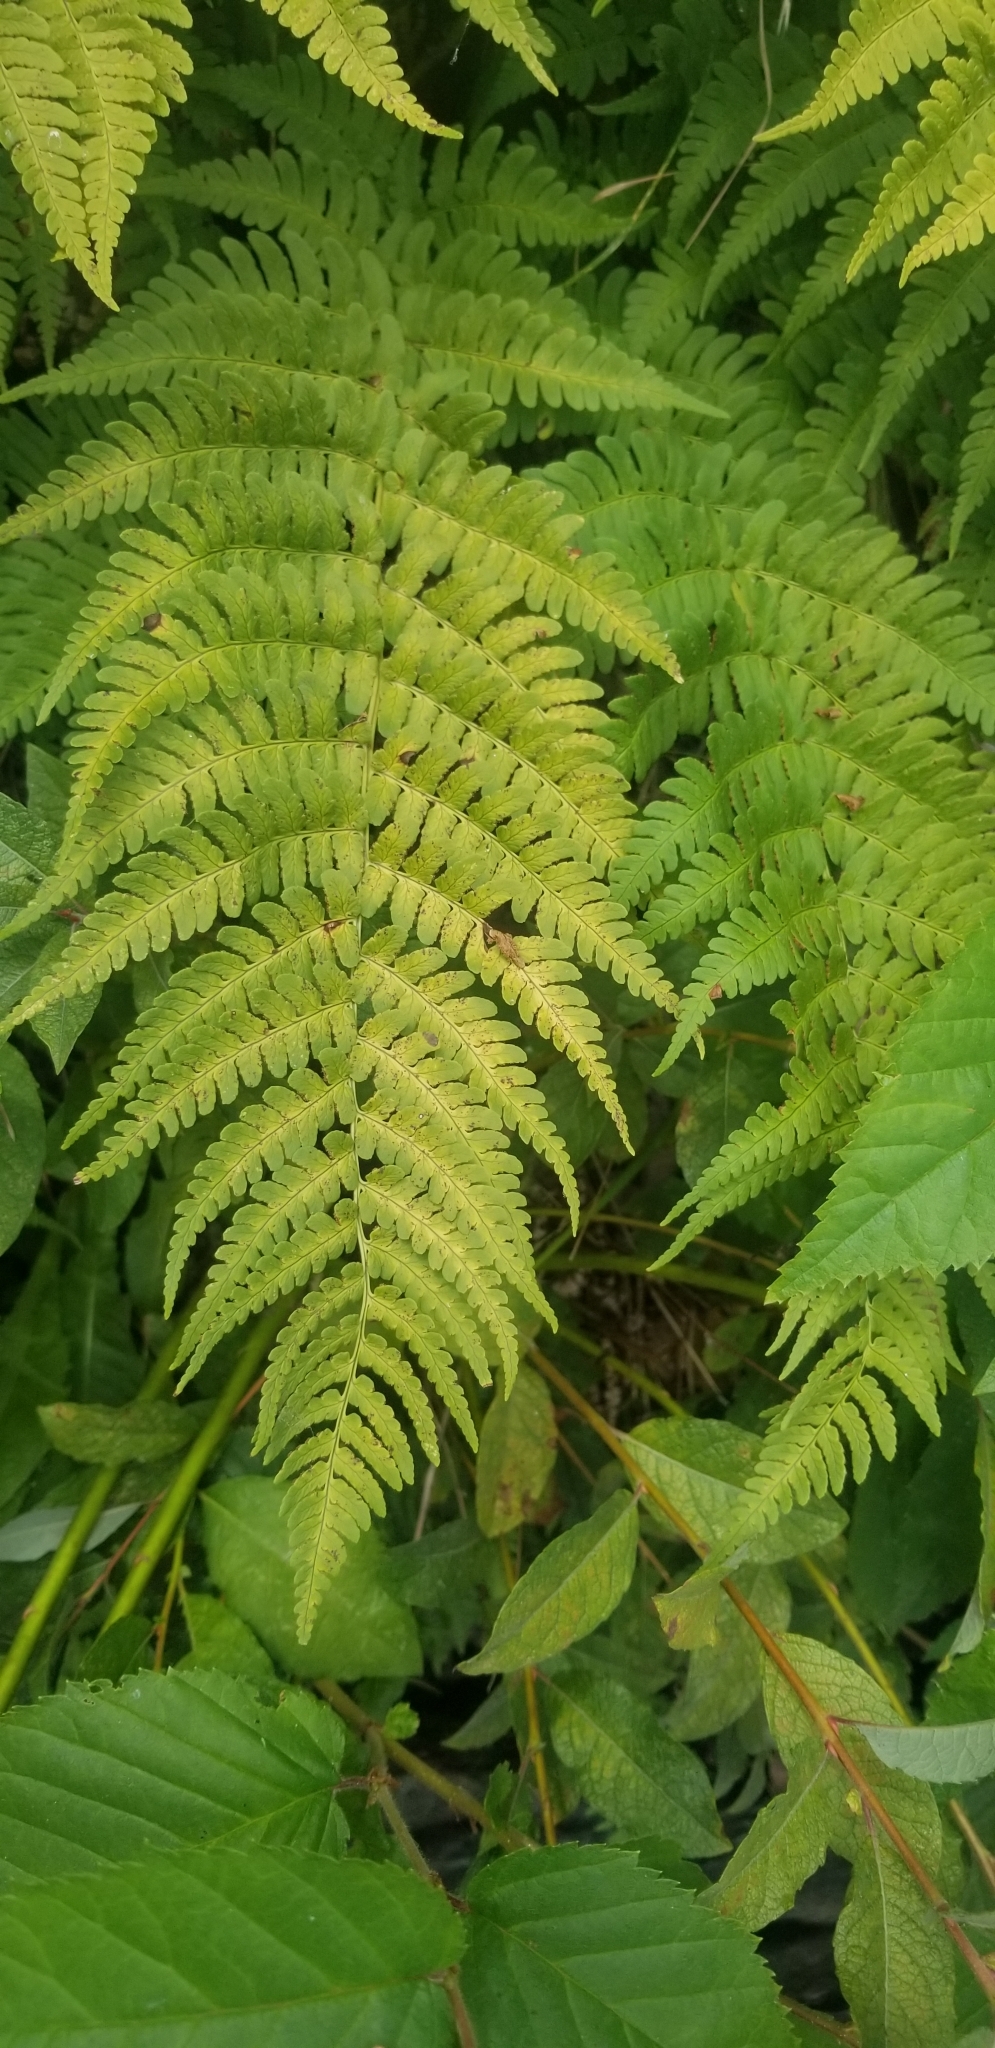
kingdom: Plantae
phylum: Tracheophyta
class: Polypodiopsida
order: Polypodiales
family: Dryopteridaceae
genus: Dryopteris
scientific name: Dryopteris marginalis
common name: Marginal wood fern
